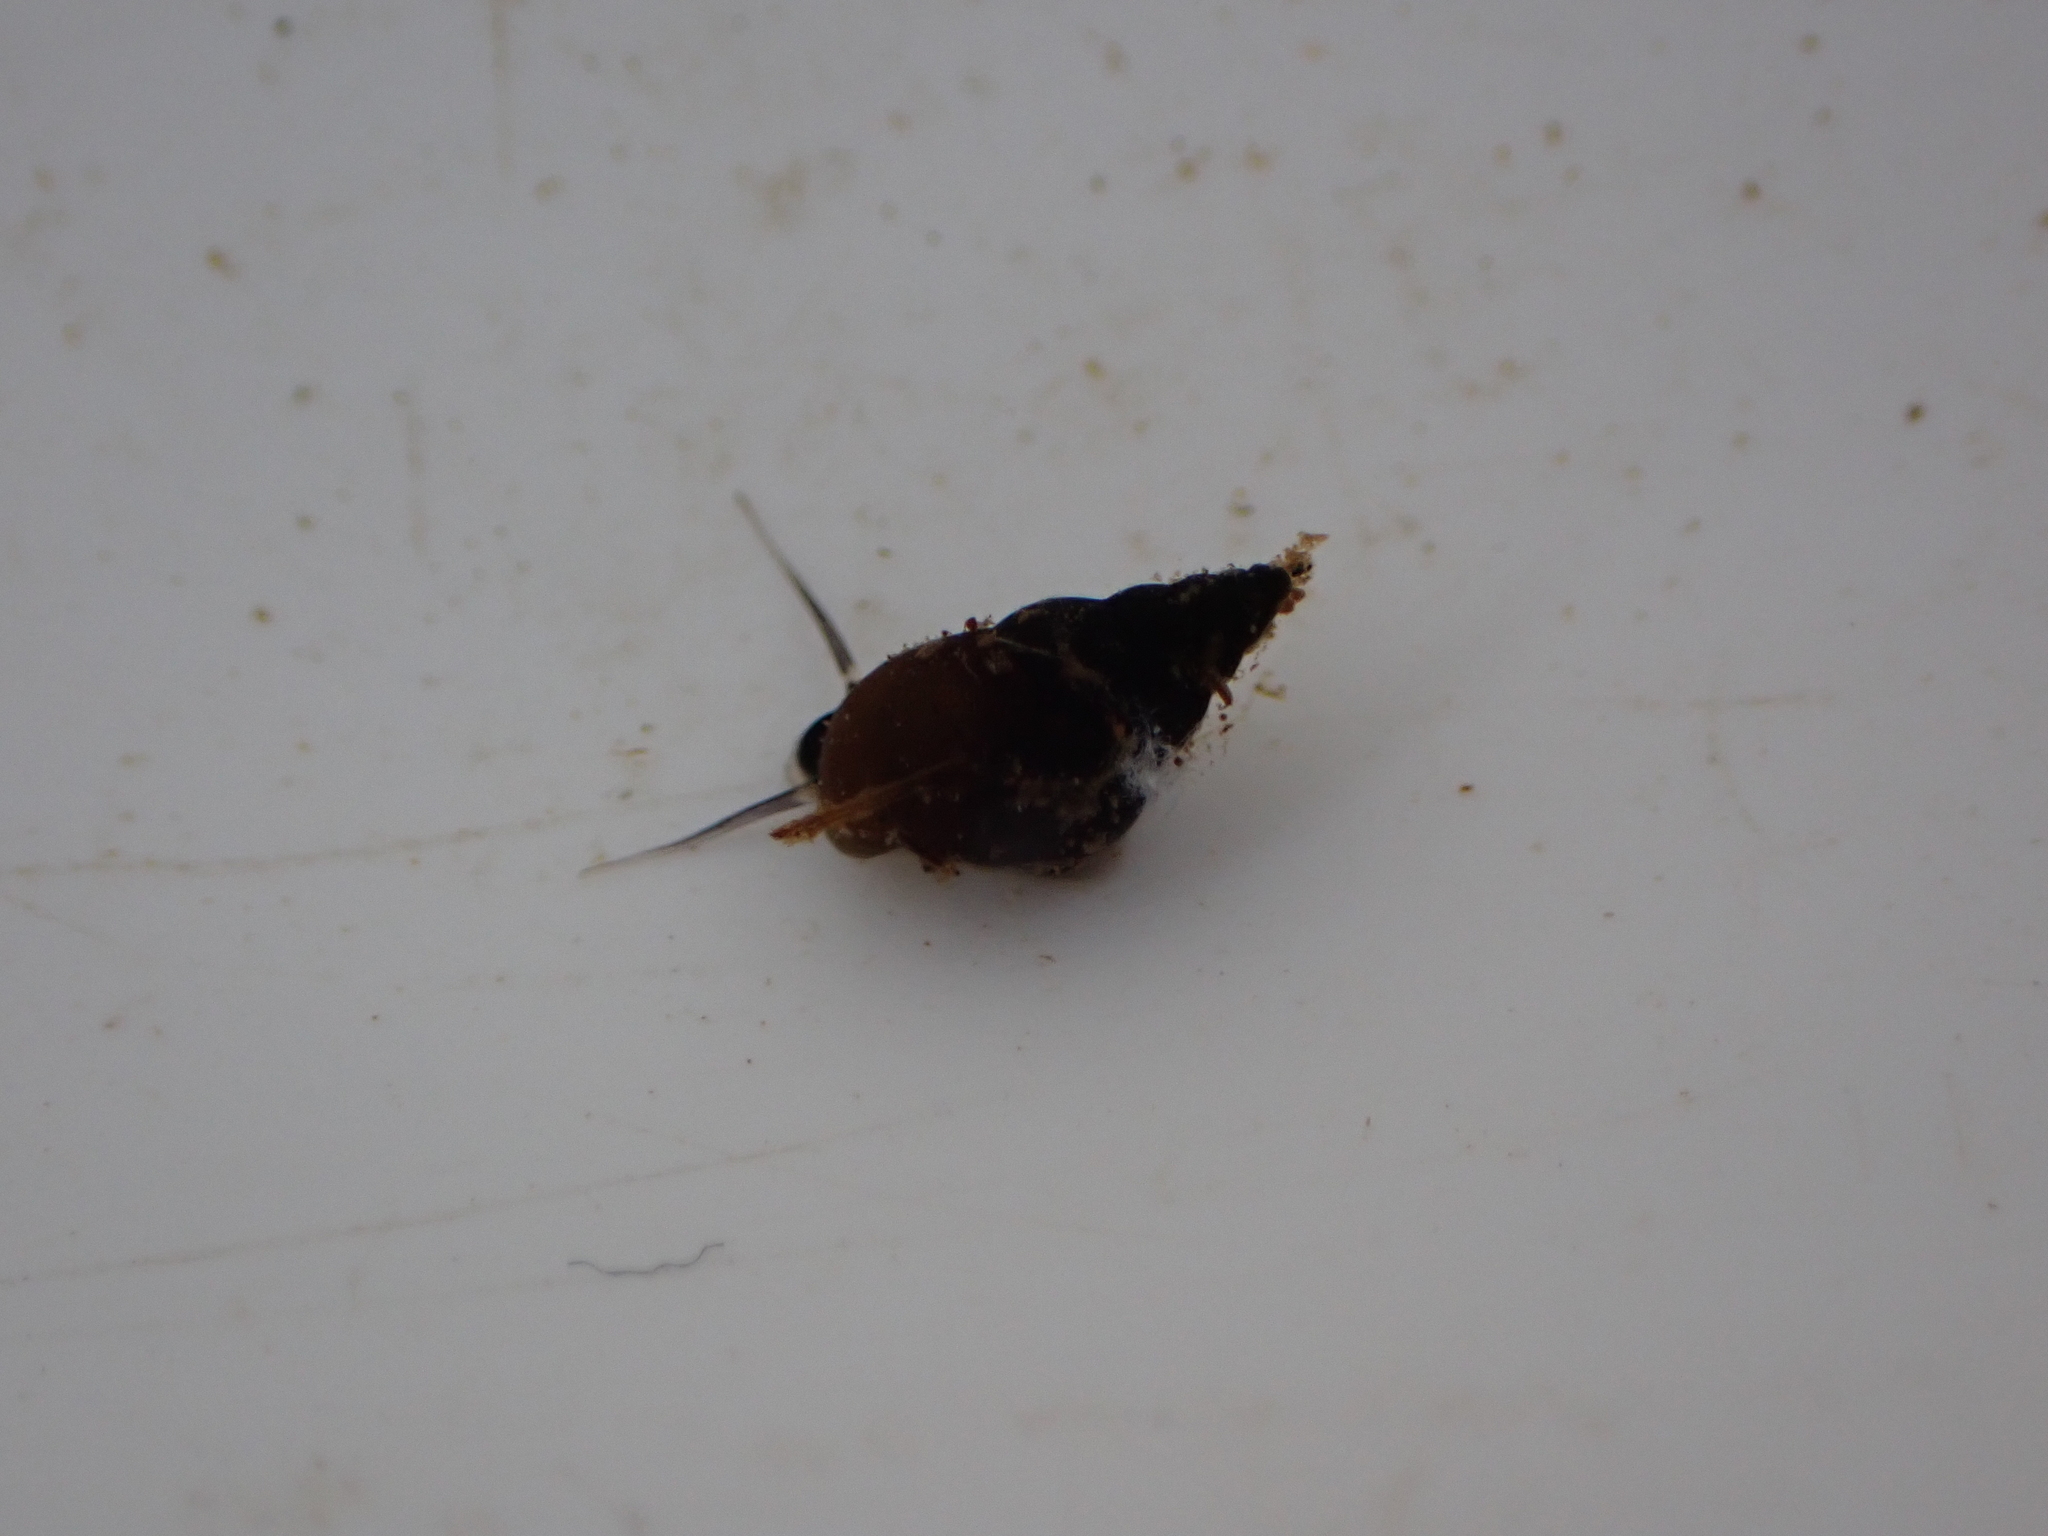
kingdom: Animalia
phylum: Mollusca
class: Gastropoda
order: Littorinimorpha
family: Tateidae
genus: Potamopyrgus
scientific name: Potamopyrgus antipodarum
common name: Jenkins' spire snail
